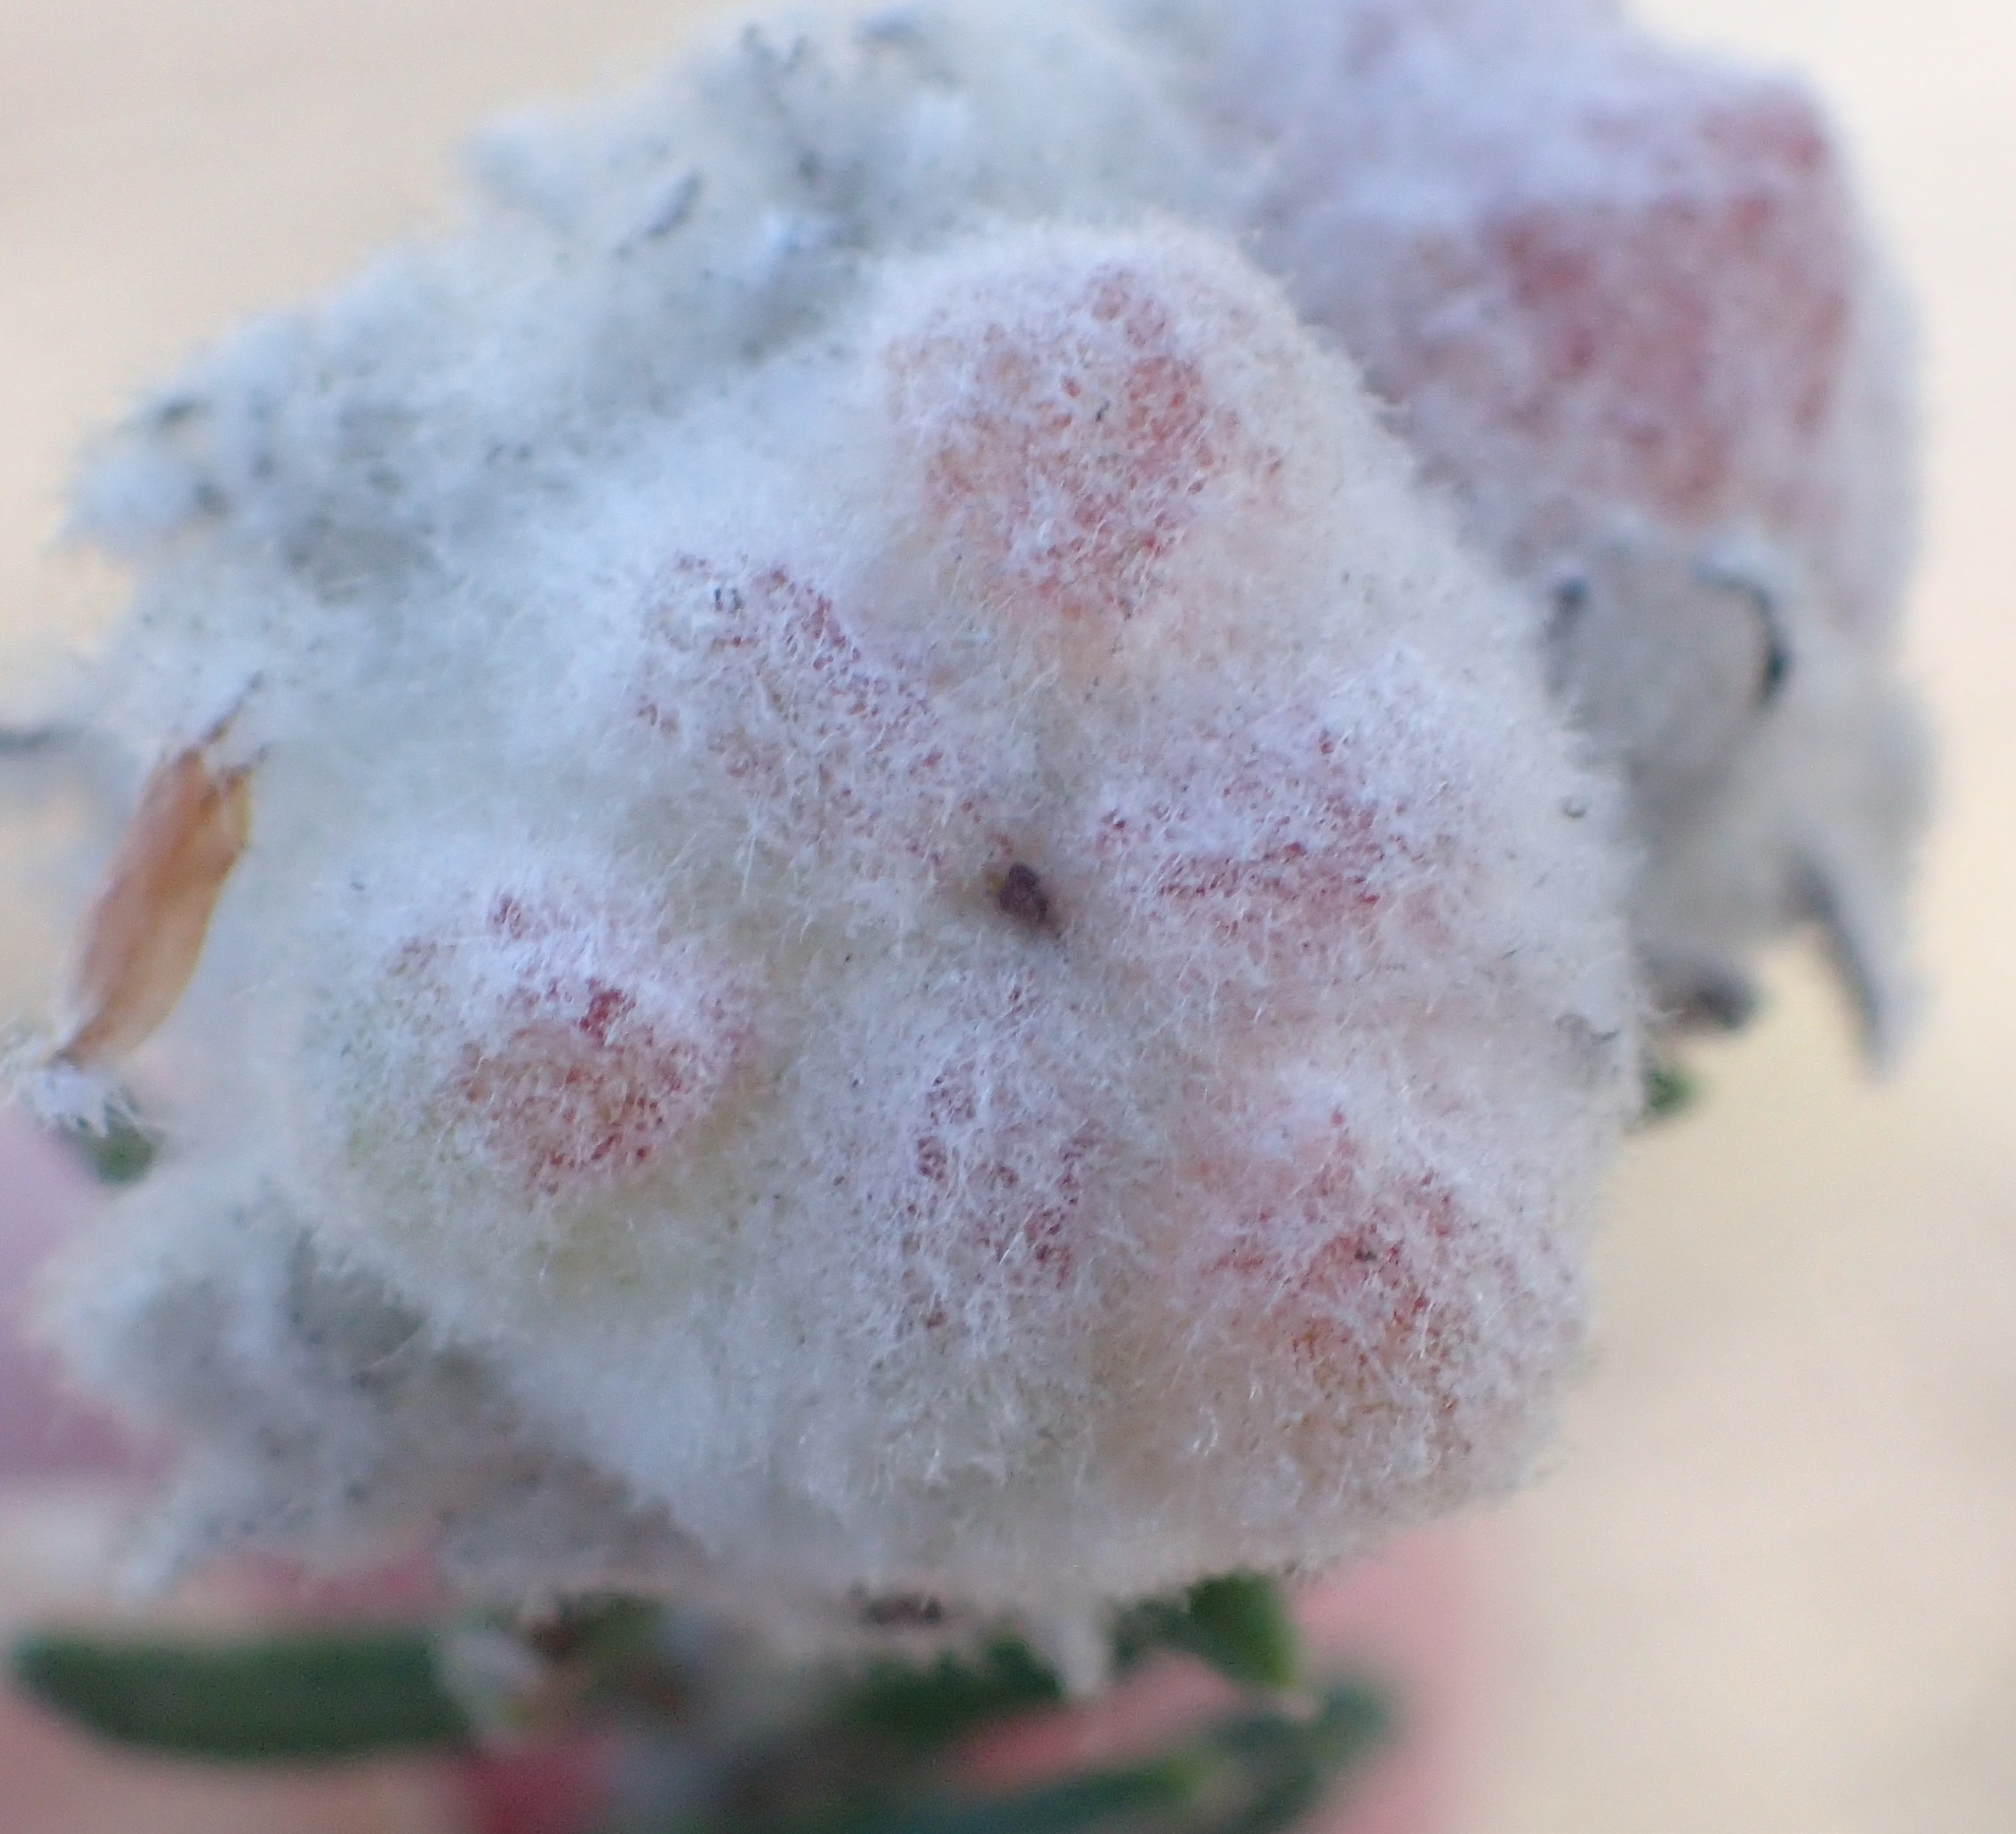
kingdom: Plantae
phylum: Tracheophyta
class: Magnoliopsida
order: Rosales
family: Rhamnaceae
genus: Trichocephalus
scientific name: Trichocephalus stipularis
